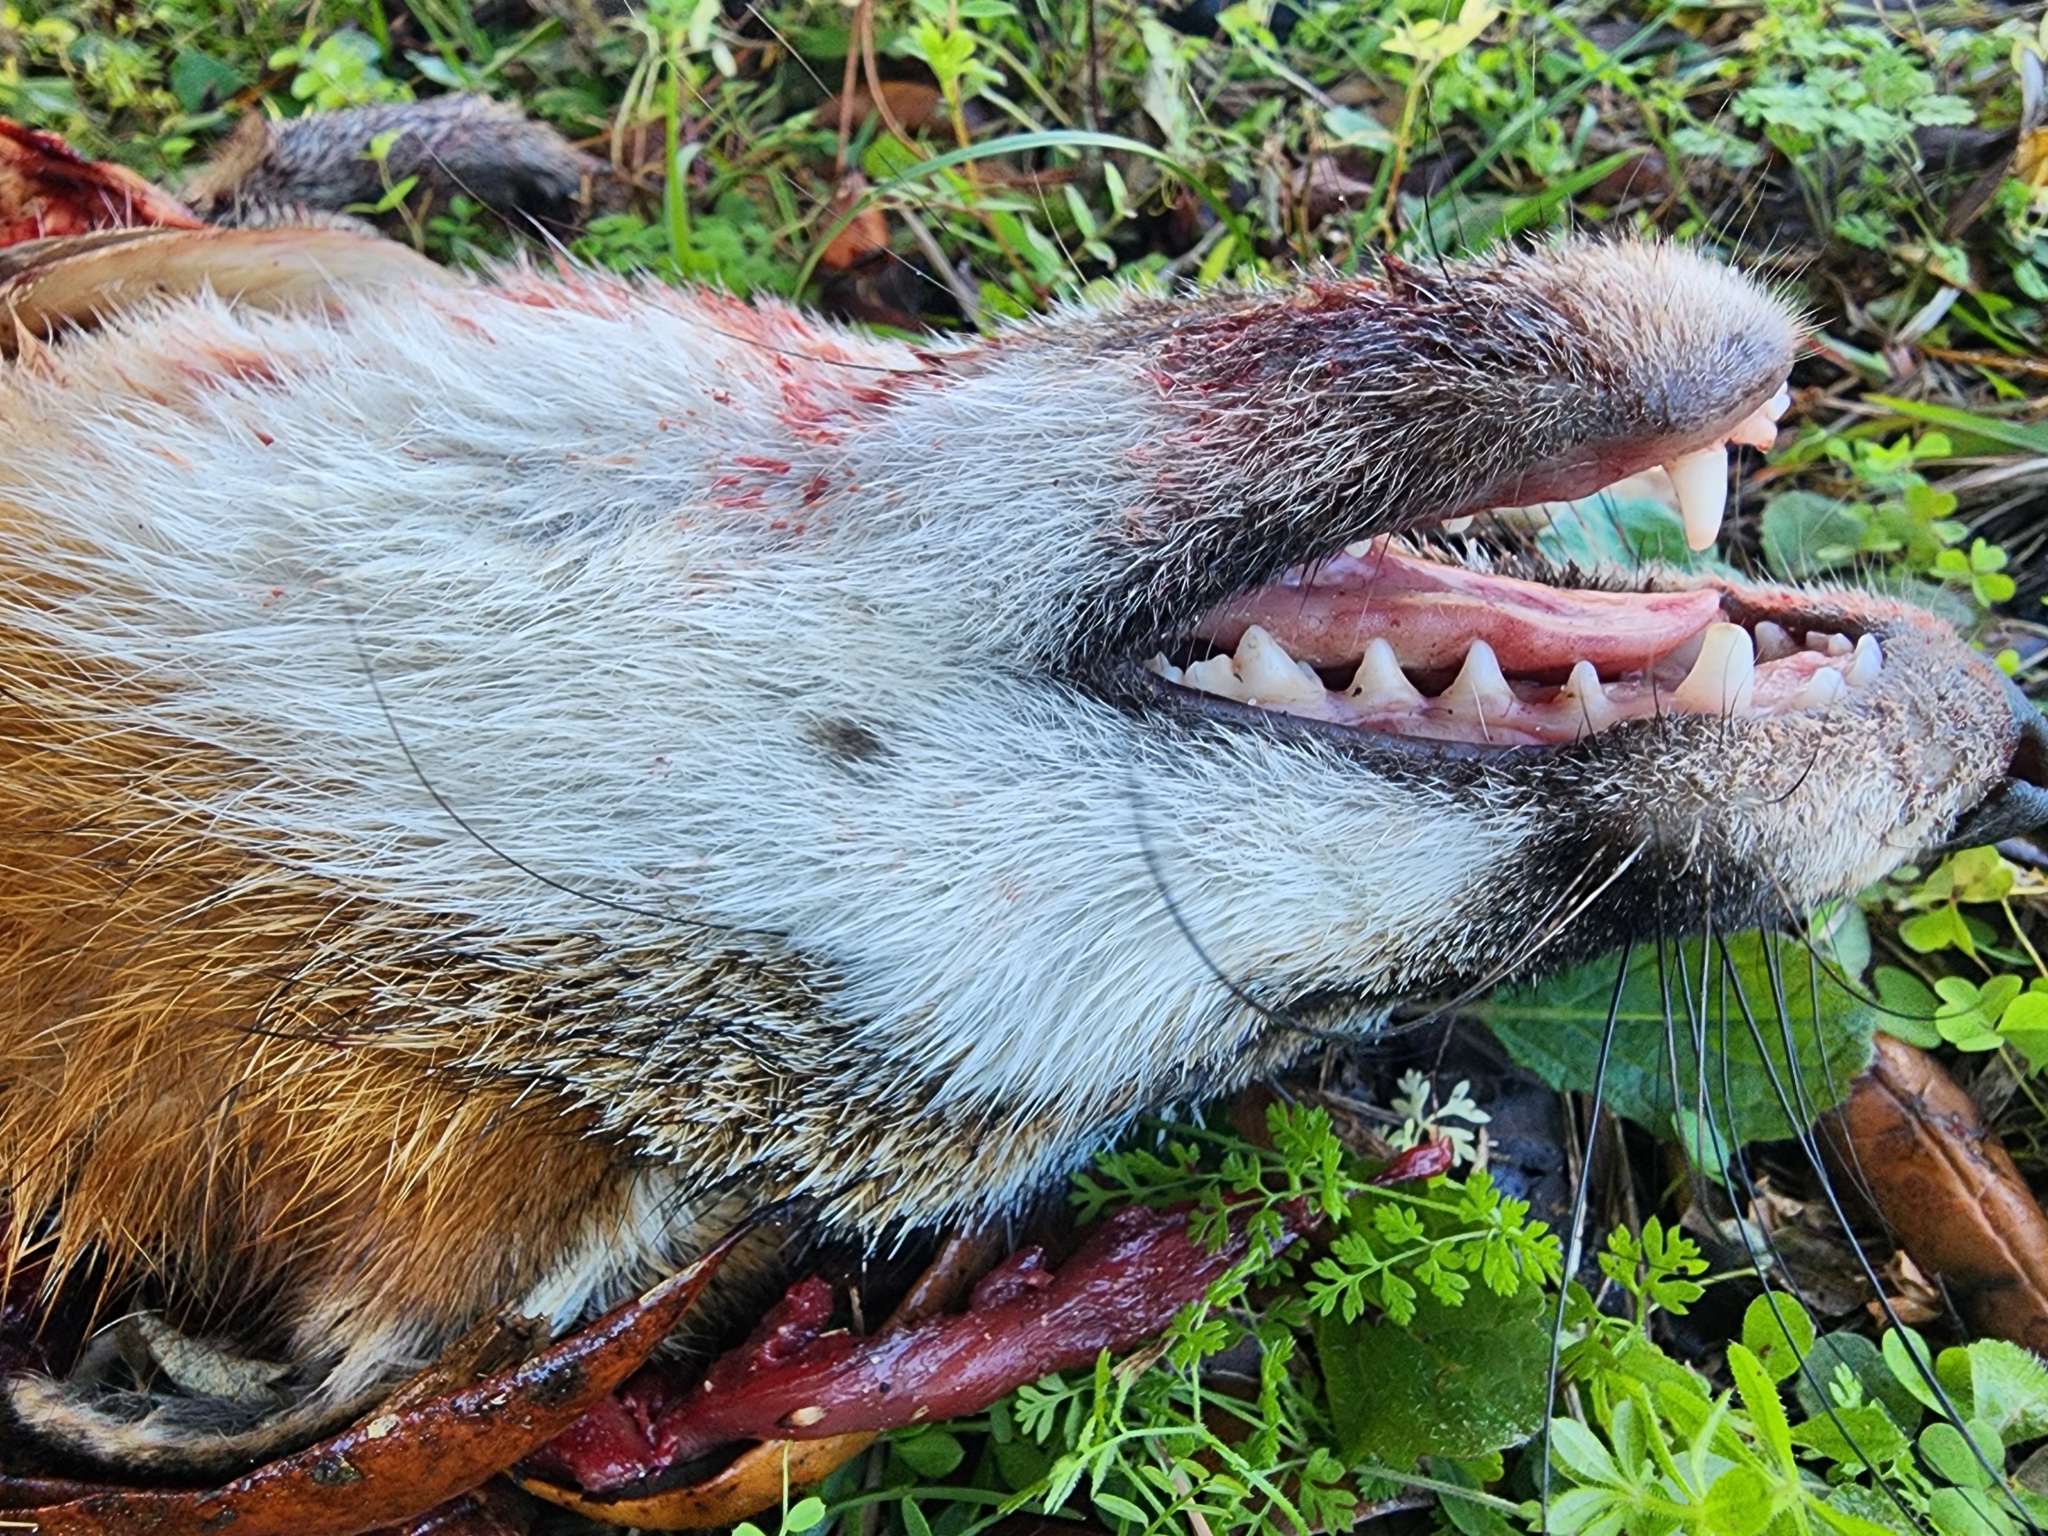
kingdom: Animalia
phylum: Chordata
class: Mammalia
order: Carnivora
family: Canidae
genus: Urocyon
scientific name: Urocyon cinereoargenteus
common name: Gray fox
